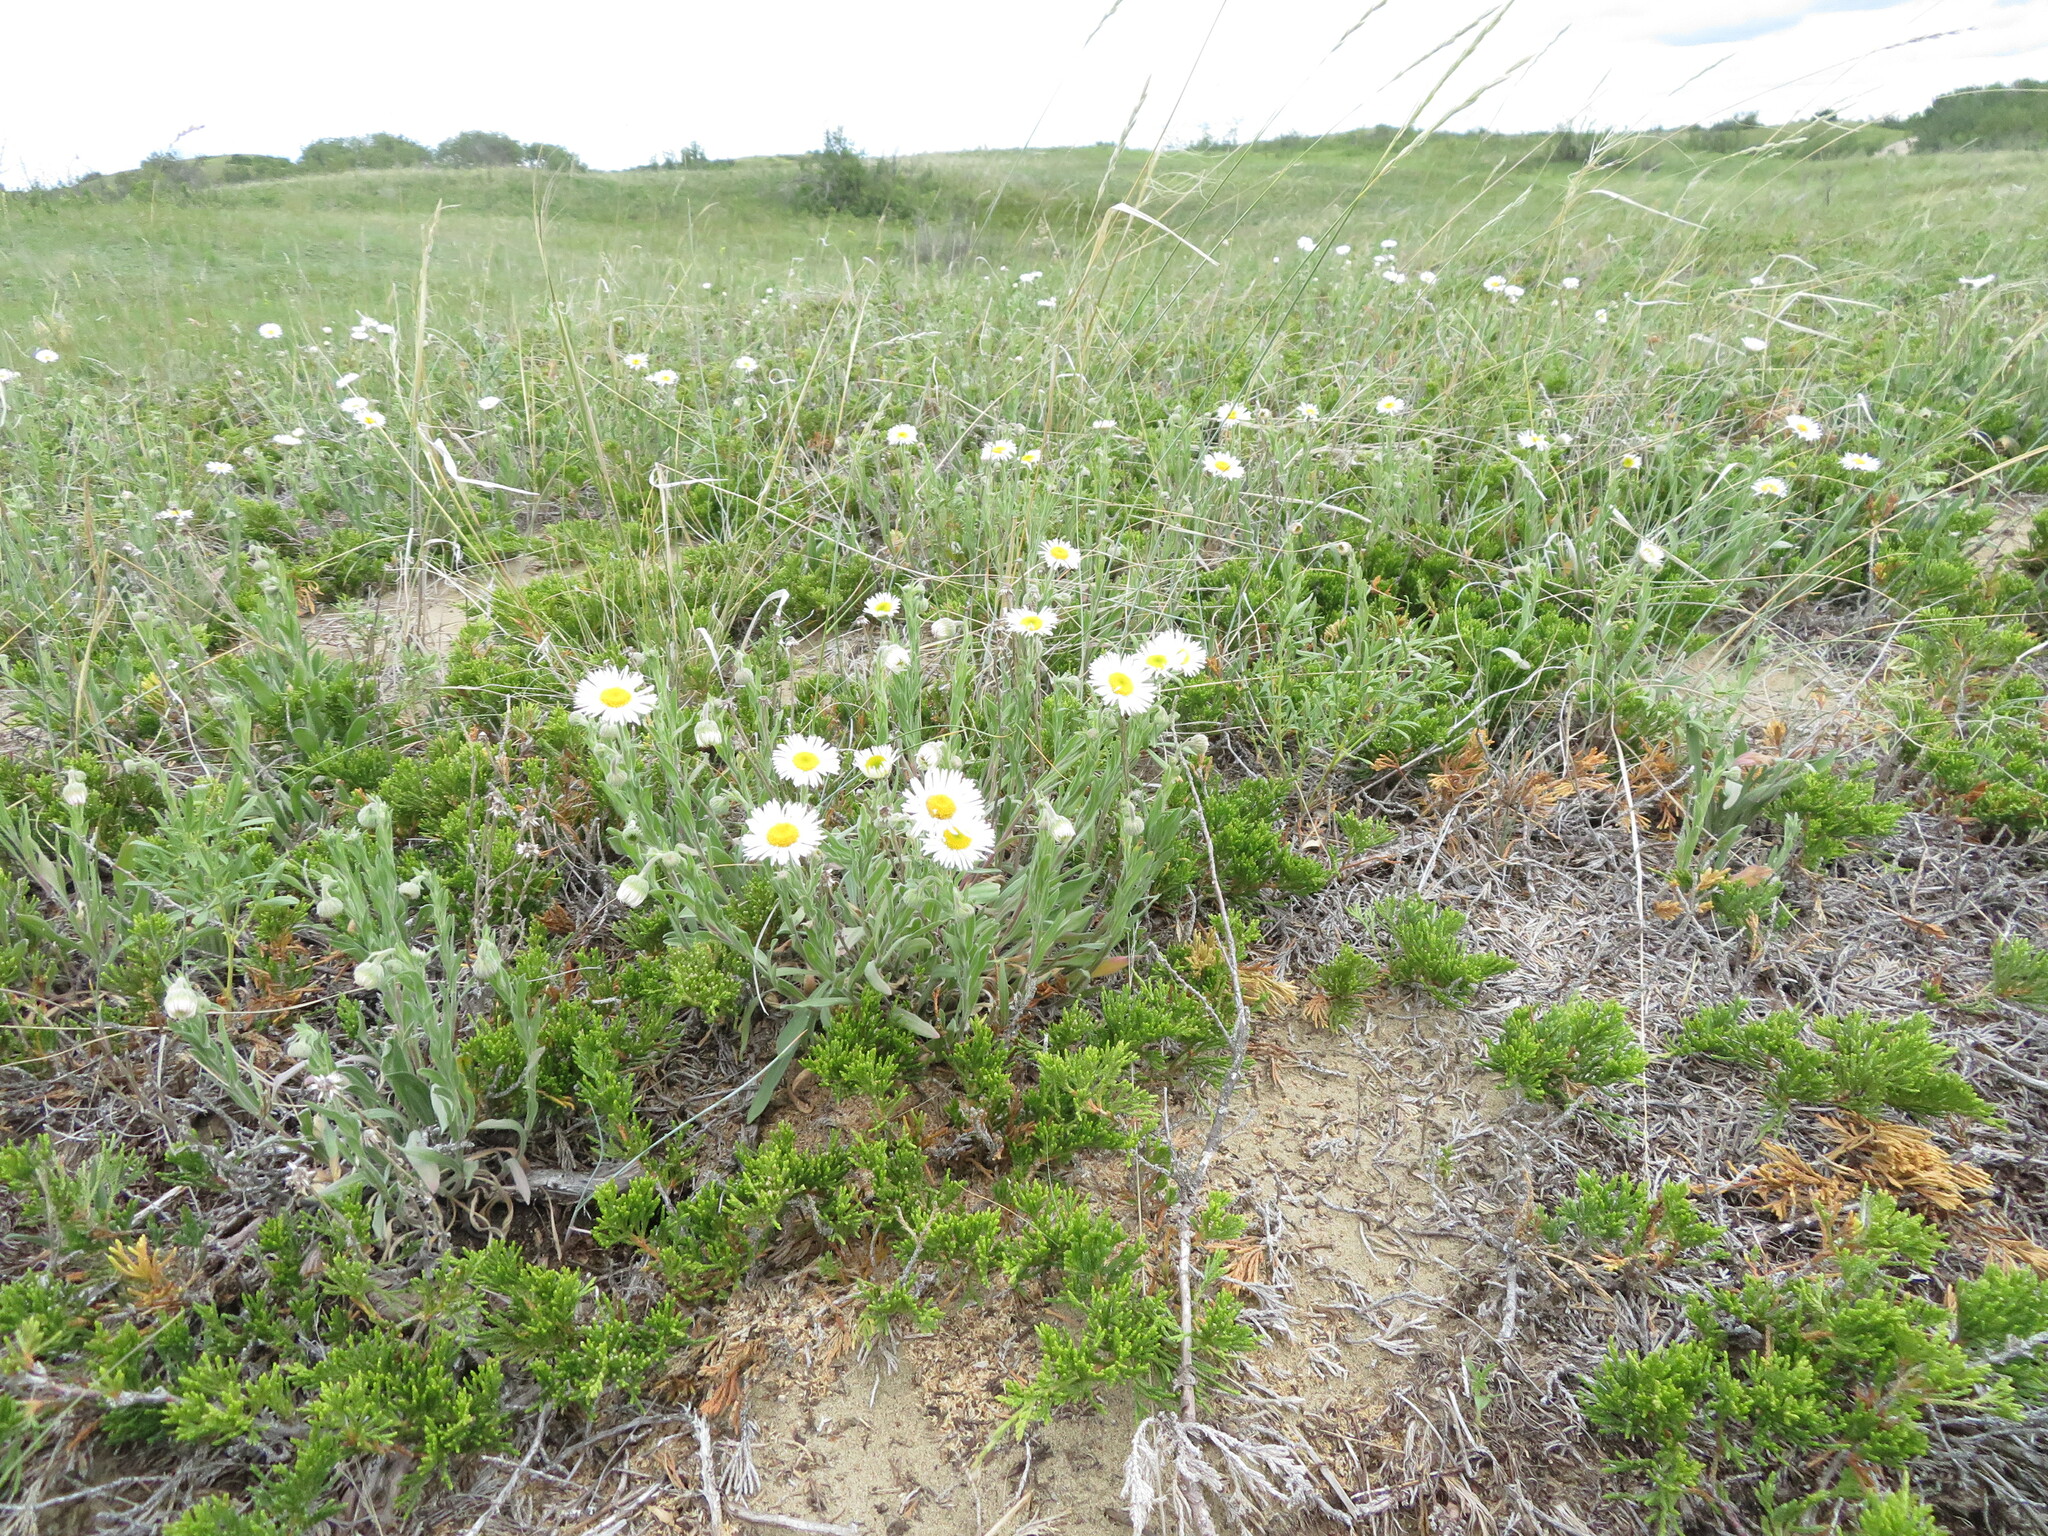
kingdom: Plantae
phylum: Tracheophyta
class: Magnoliopsida
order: Asterales
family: Asteraceae
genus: Erigeron
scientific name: Erigeron caespitosus
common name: Tufted fleabane
